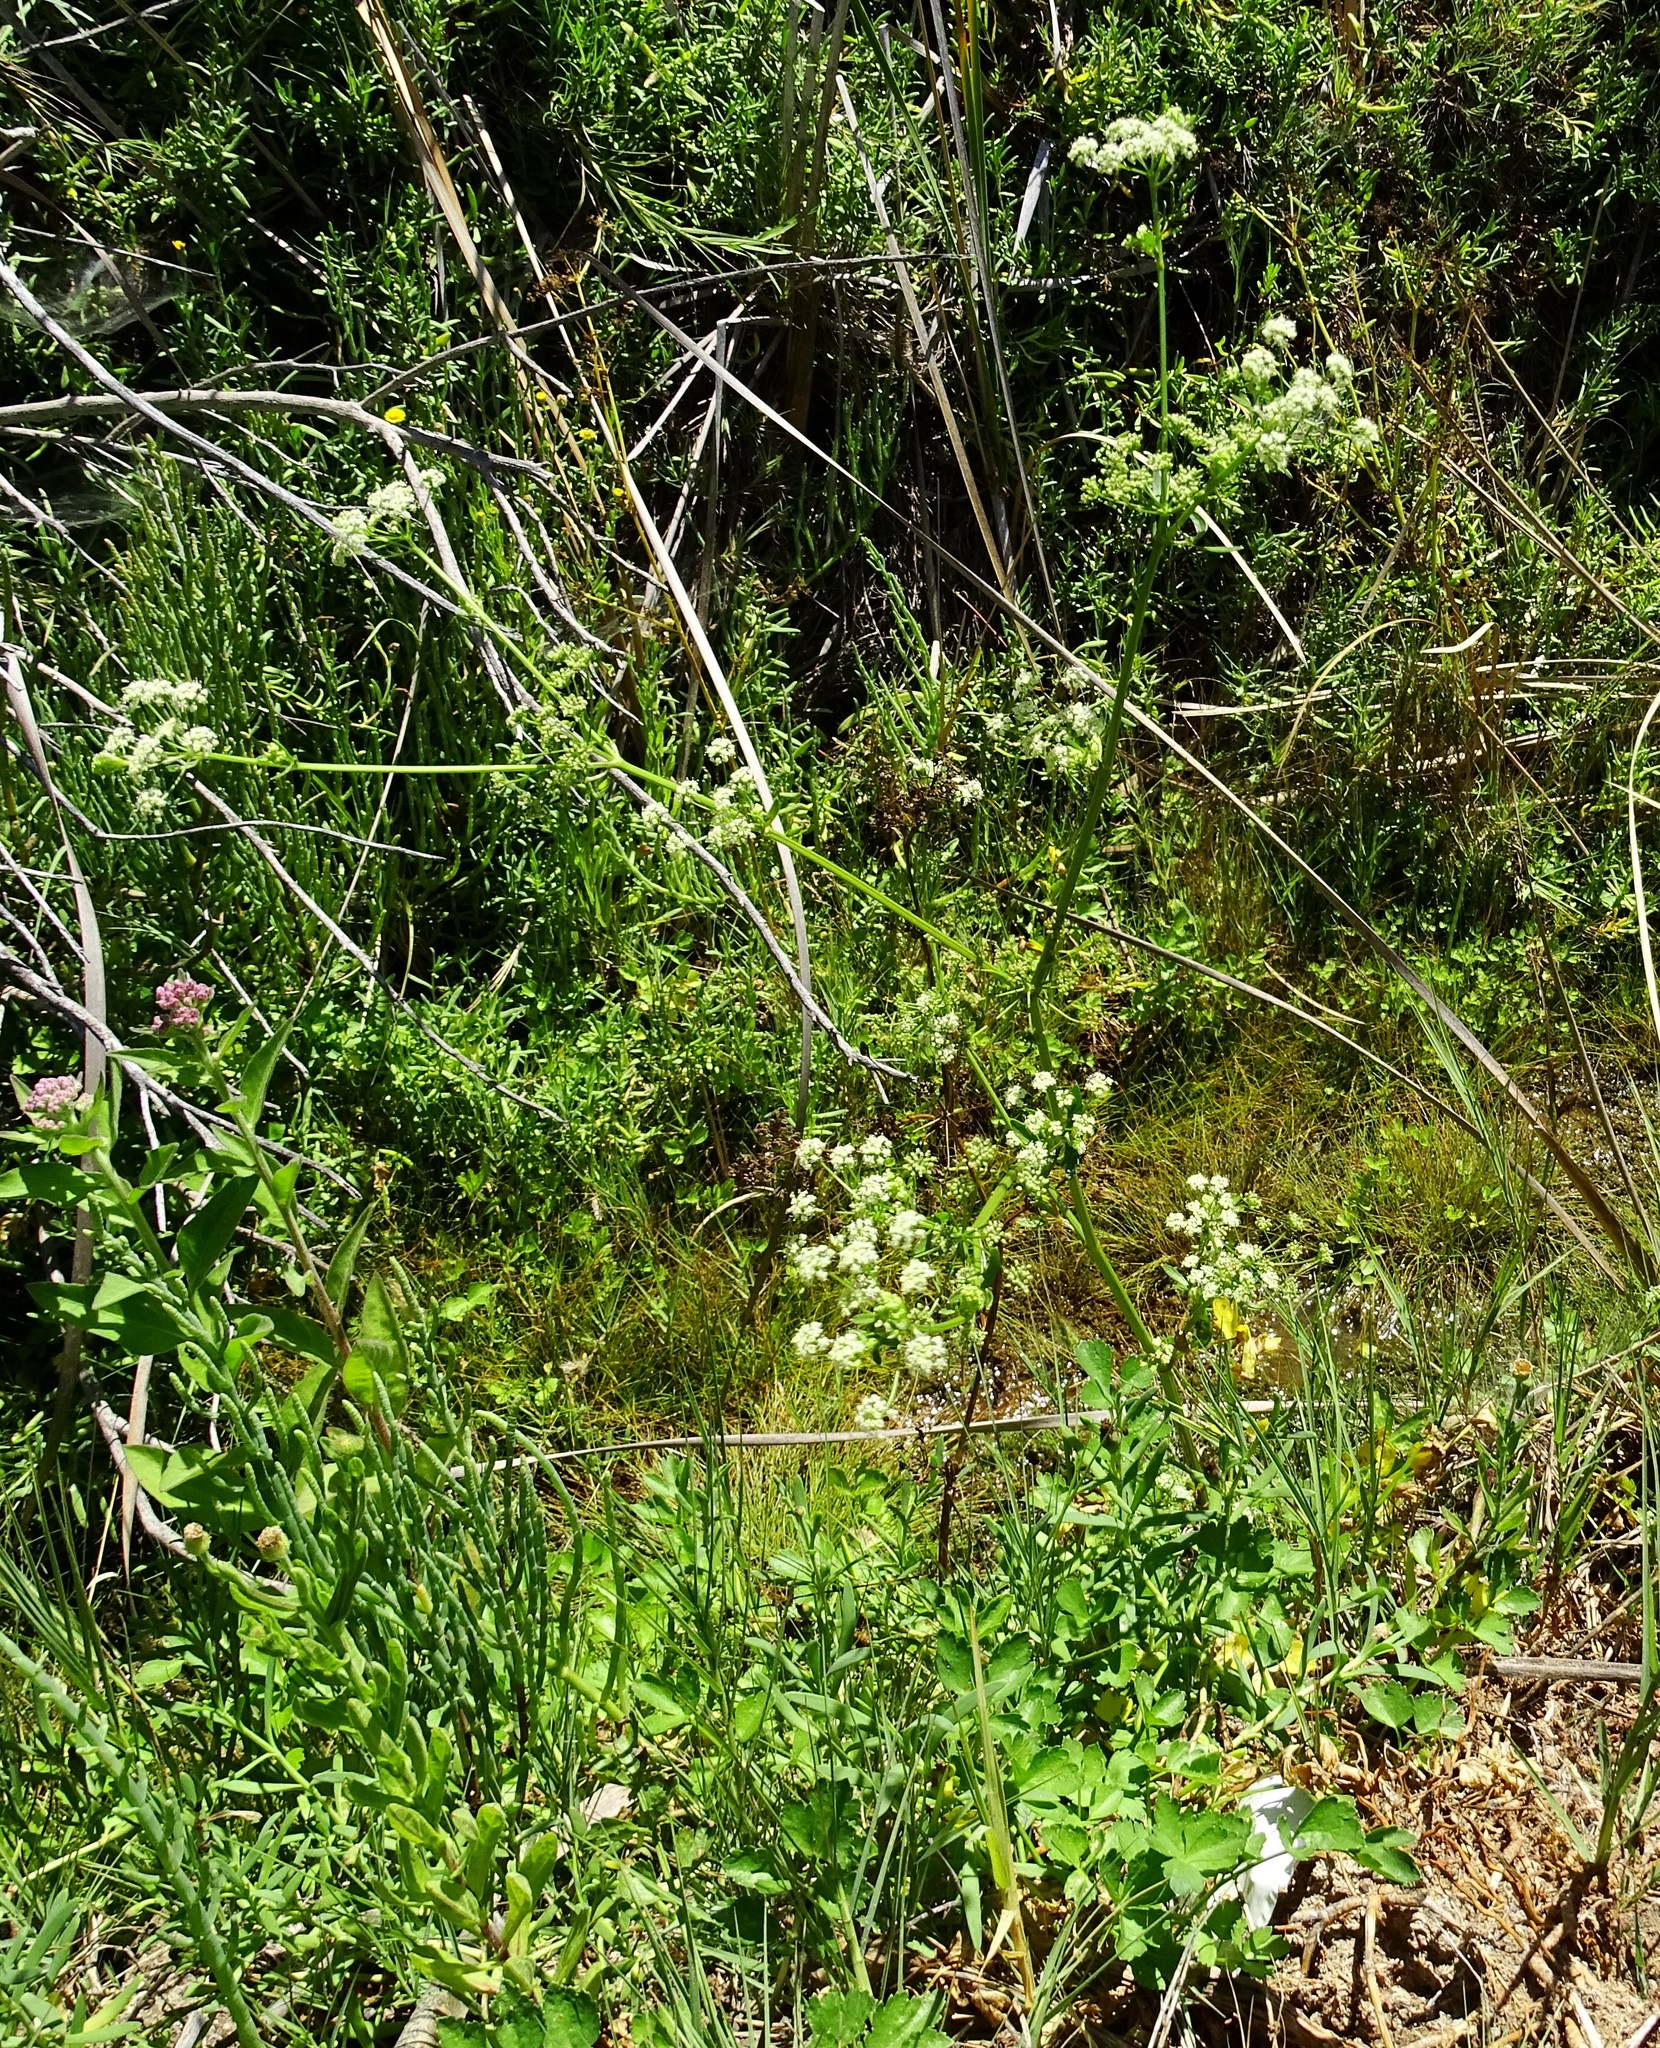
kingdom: Plantae
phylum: Tracheophyta
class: Magnoliopsida
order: Apiales
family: Apiaceae
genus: Conium
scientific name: Conium maculatum
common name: Hemlock
